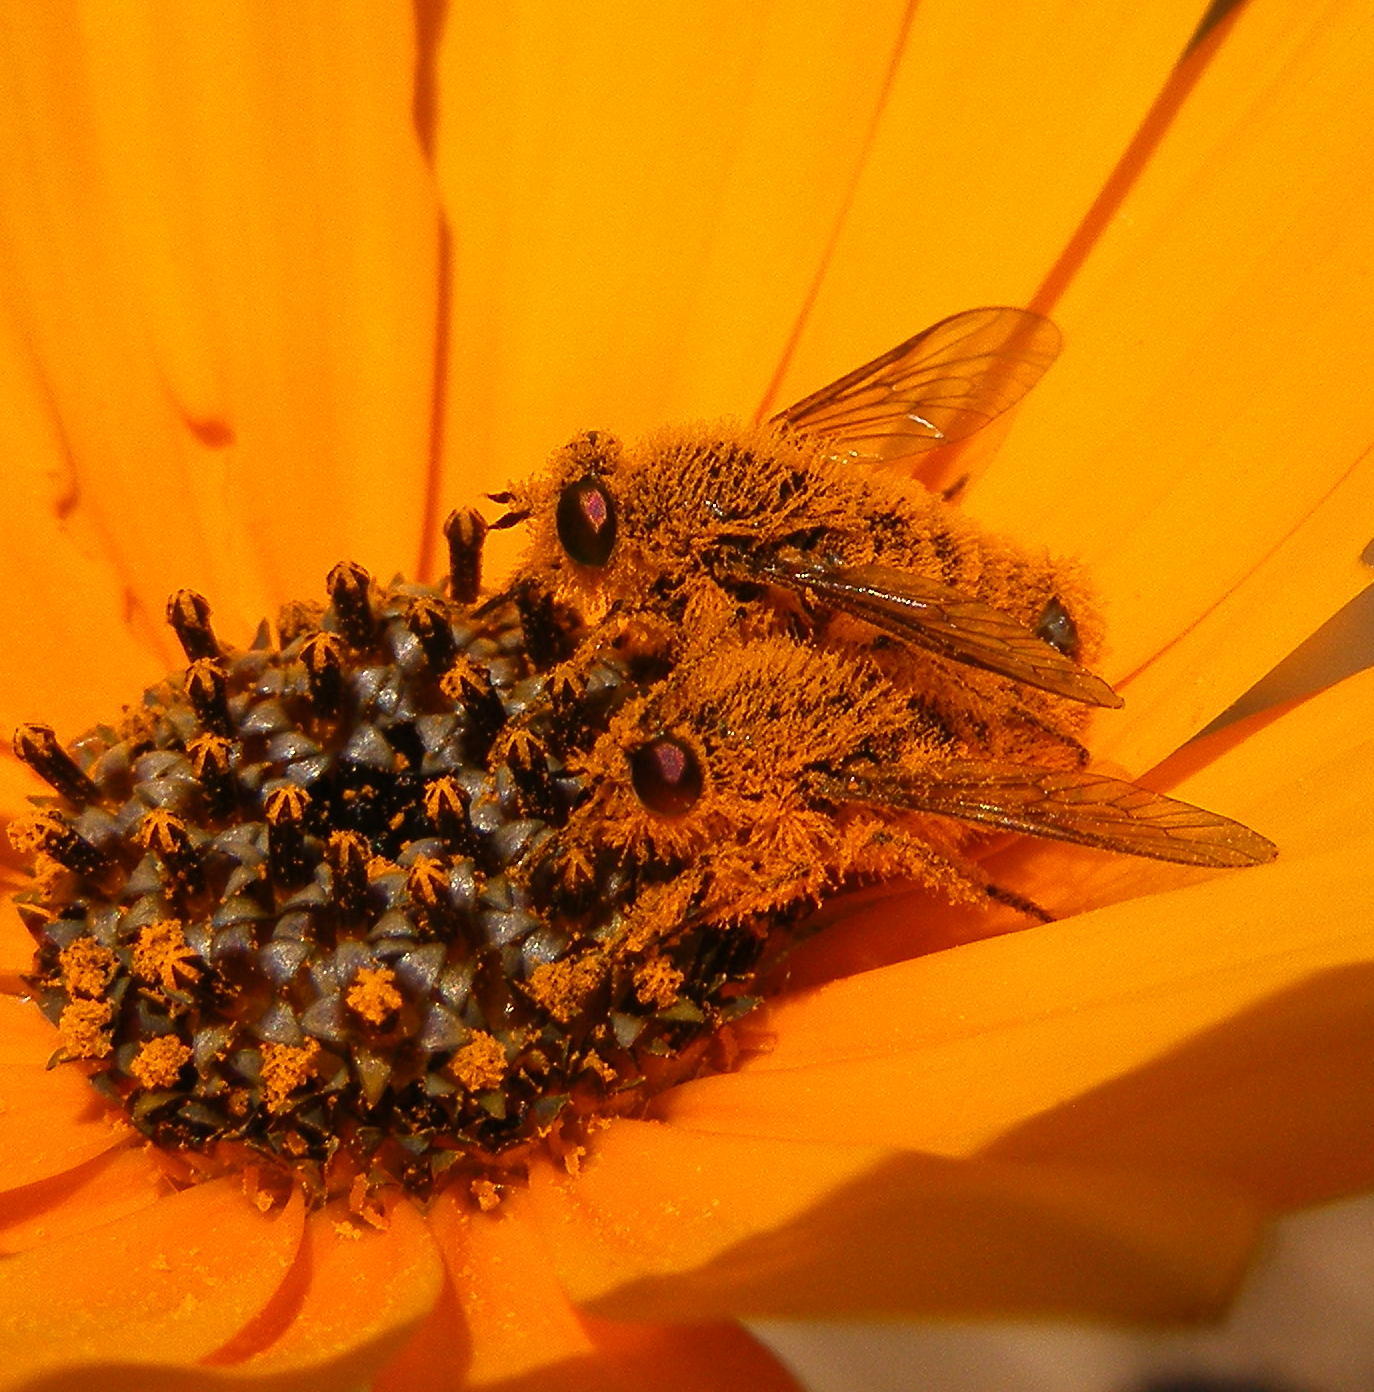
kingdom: Animalia
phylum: Arthropoda
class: Insecta
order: Diptera
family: Tabanidae
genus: Rhigioglossa
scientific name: Rhigioglossa nitens
